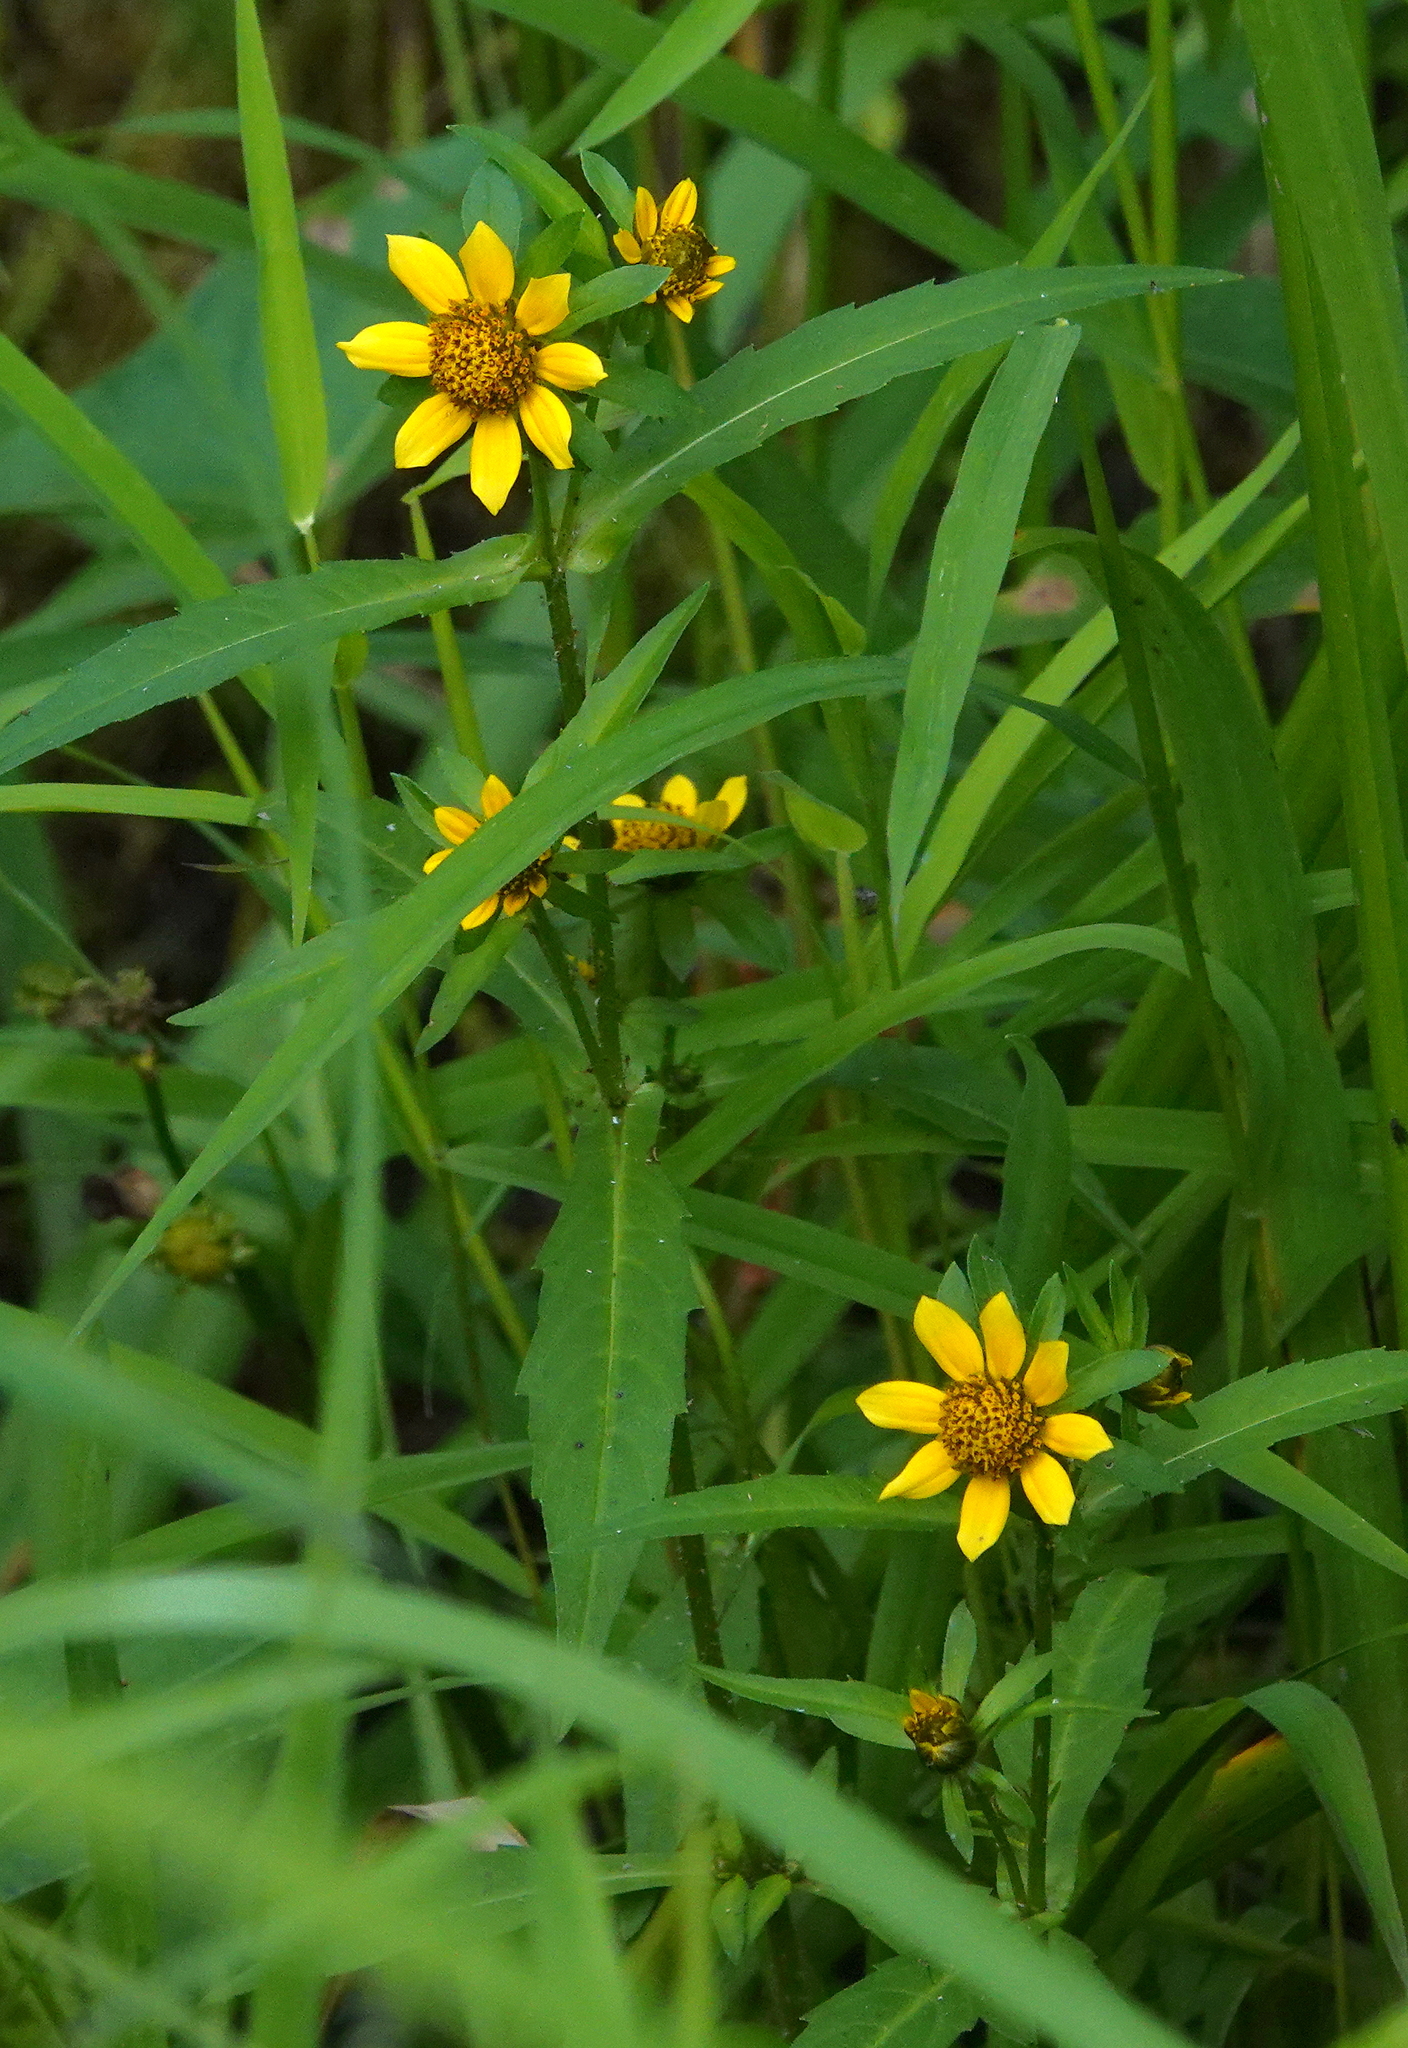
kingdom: Plantae
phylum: Tracheophyta
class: Magnoliopsida
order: Asterales
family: Asteraceae
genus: Bidens
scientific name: Bidens cernua
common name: Nodding bur-marigold
